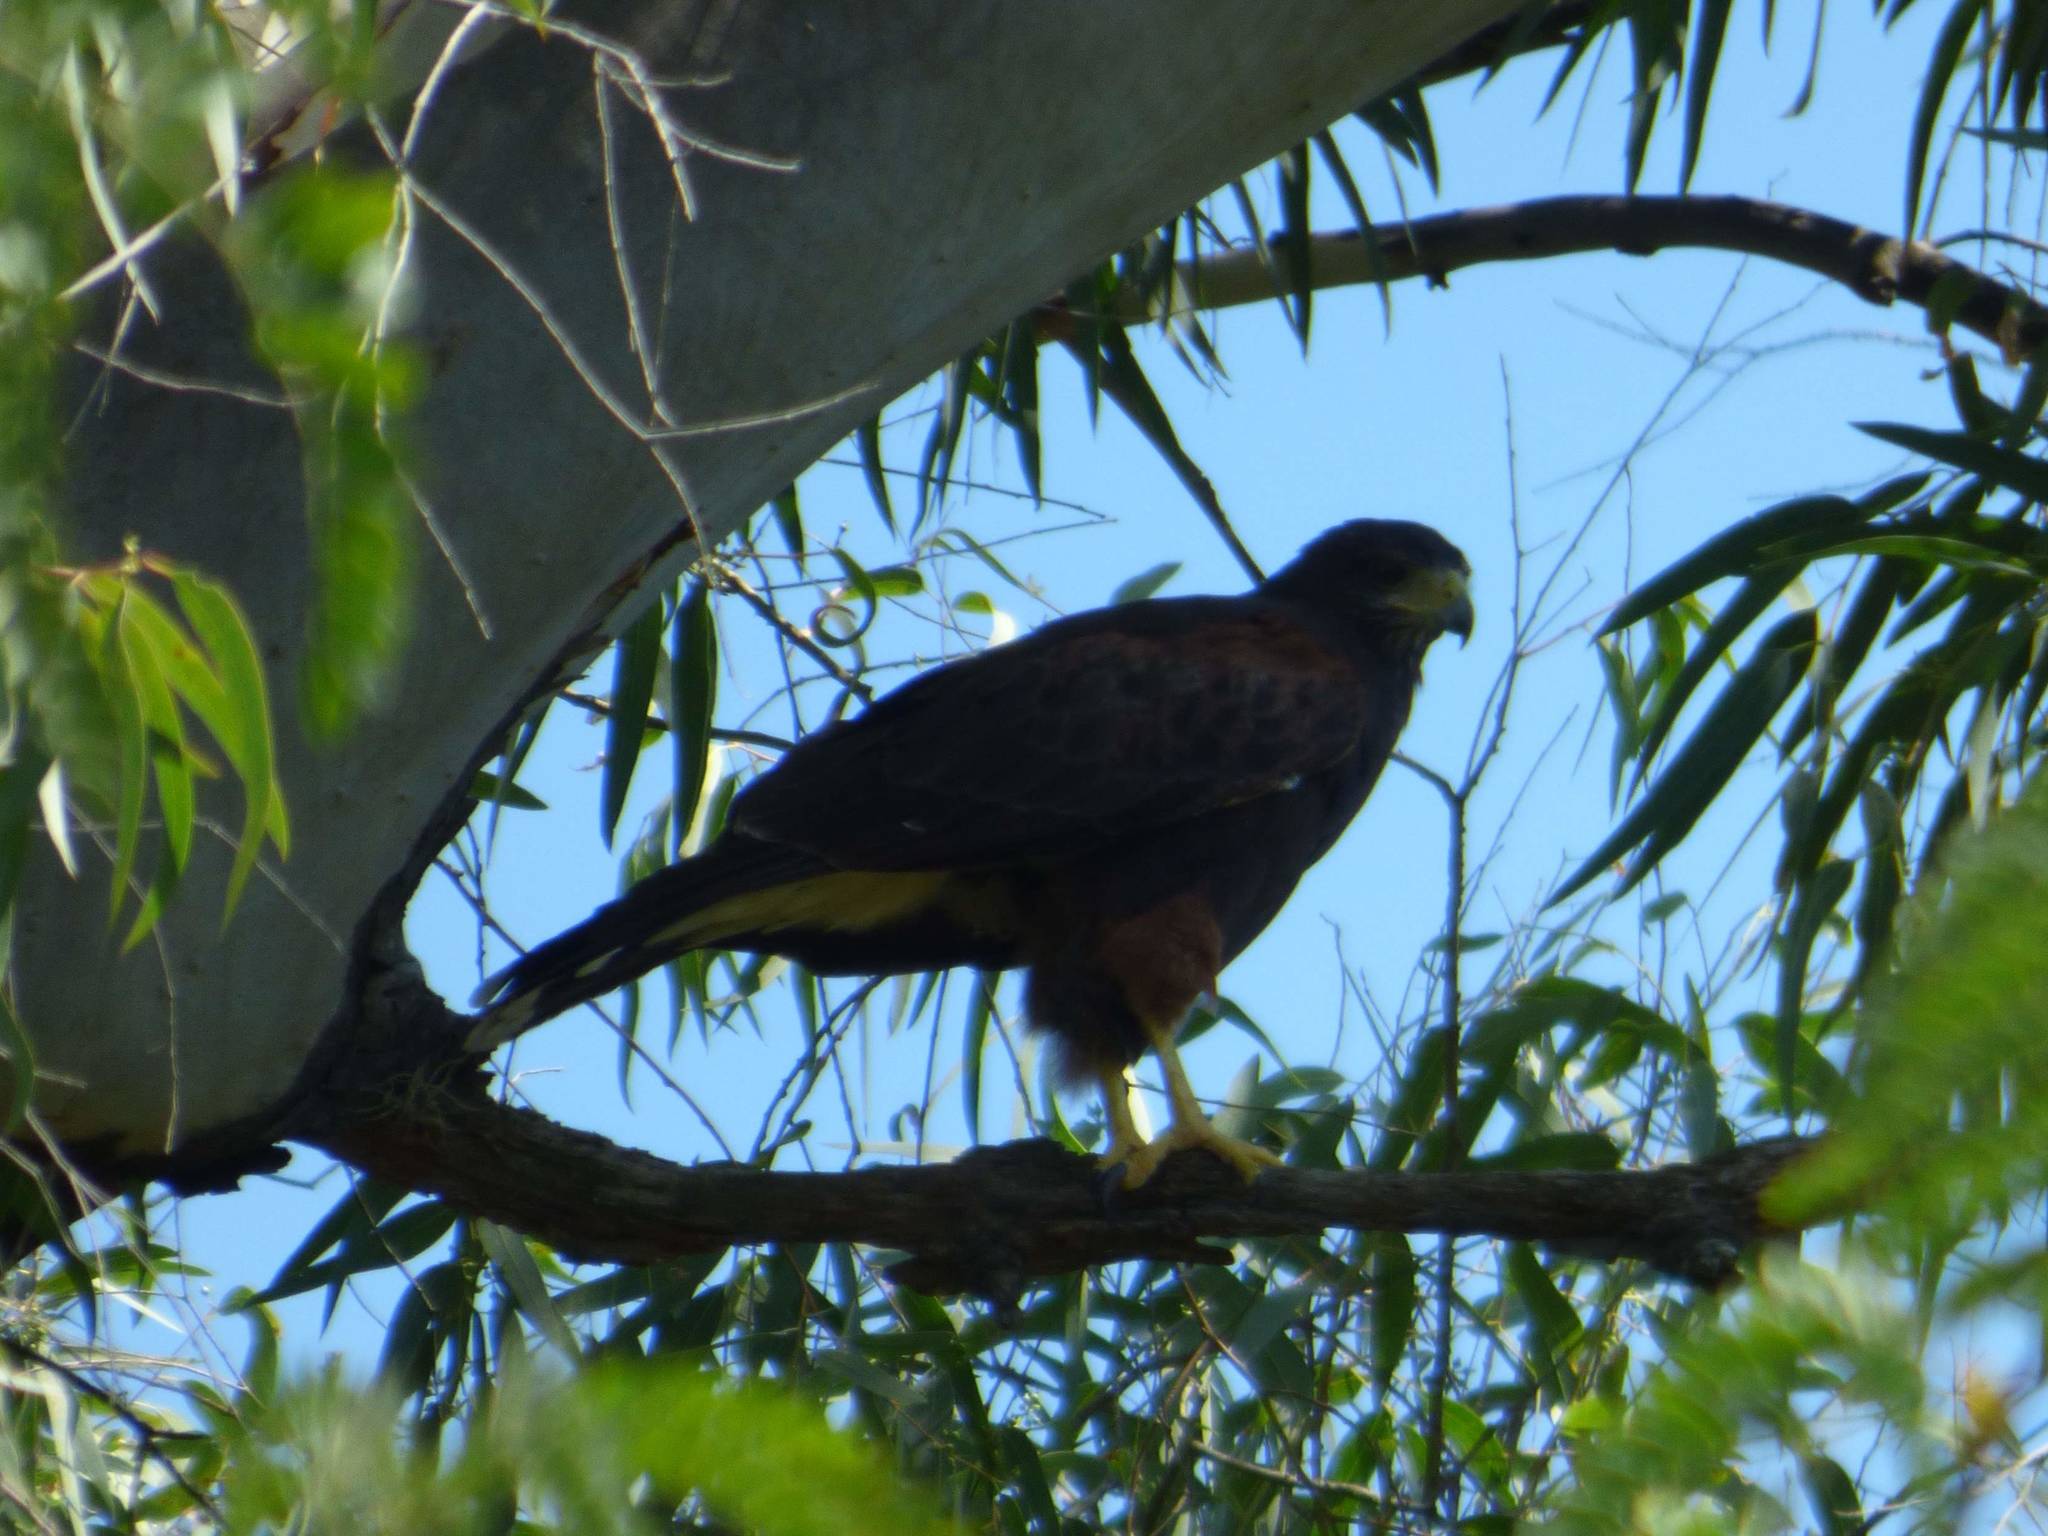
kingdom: Animalia
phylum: Chordata
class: Aves
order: Accipitriformes
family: Accipitridae
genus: Parabuteo
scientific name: Parabuteo unicinctus
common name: Harris's hawk
